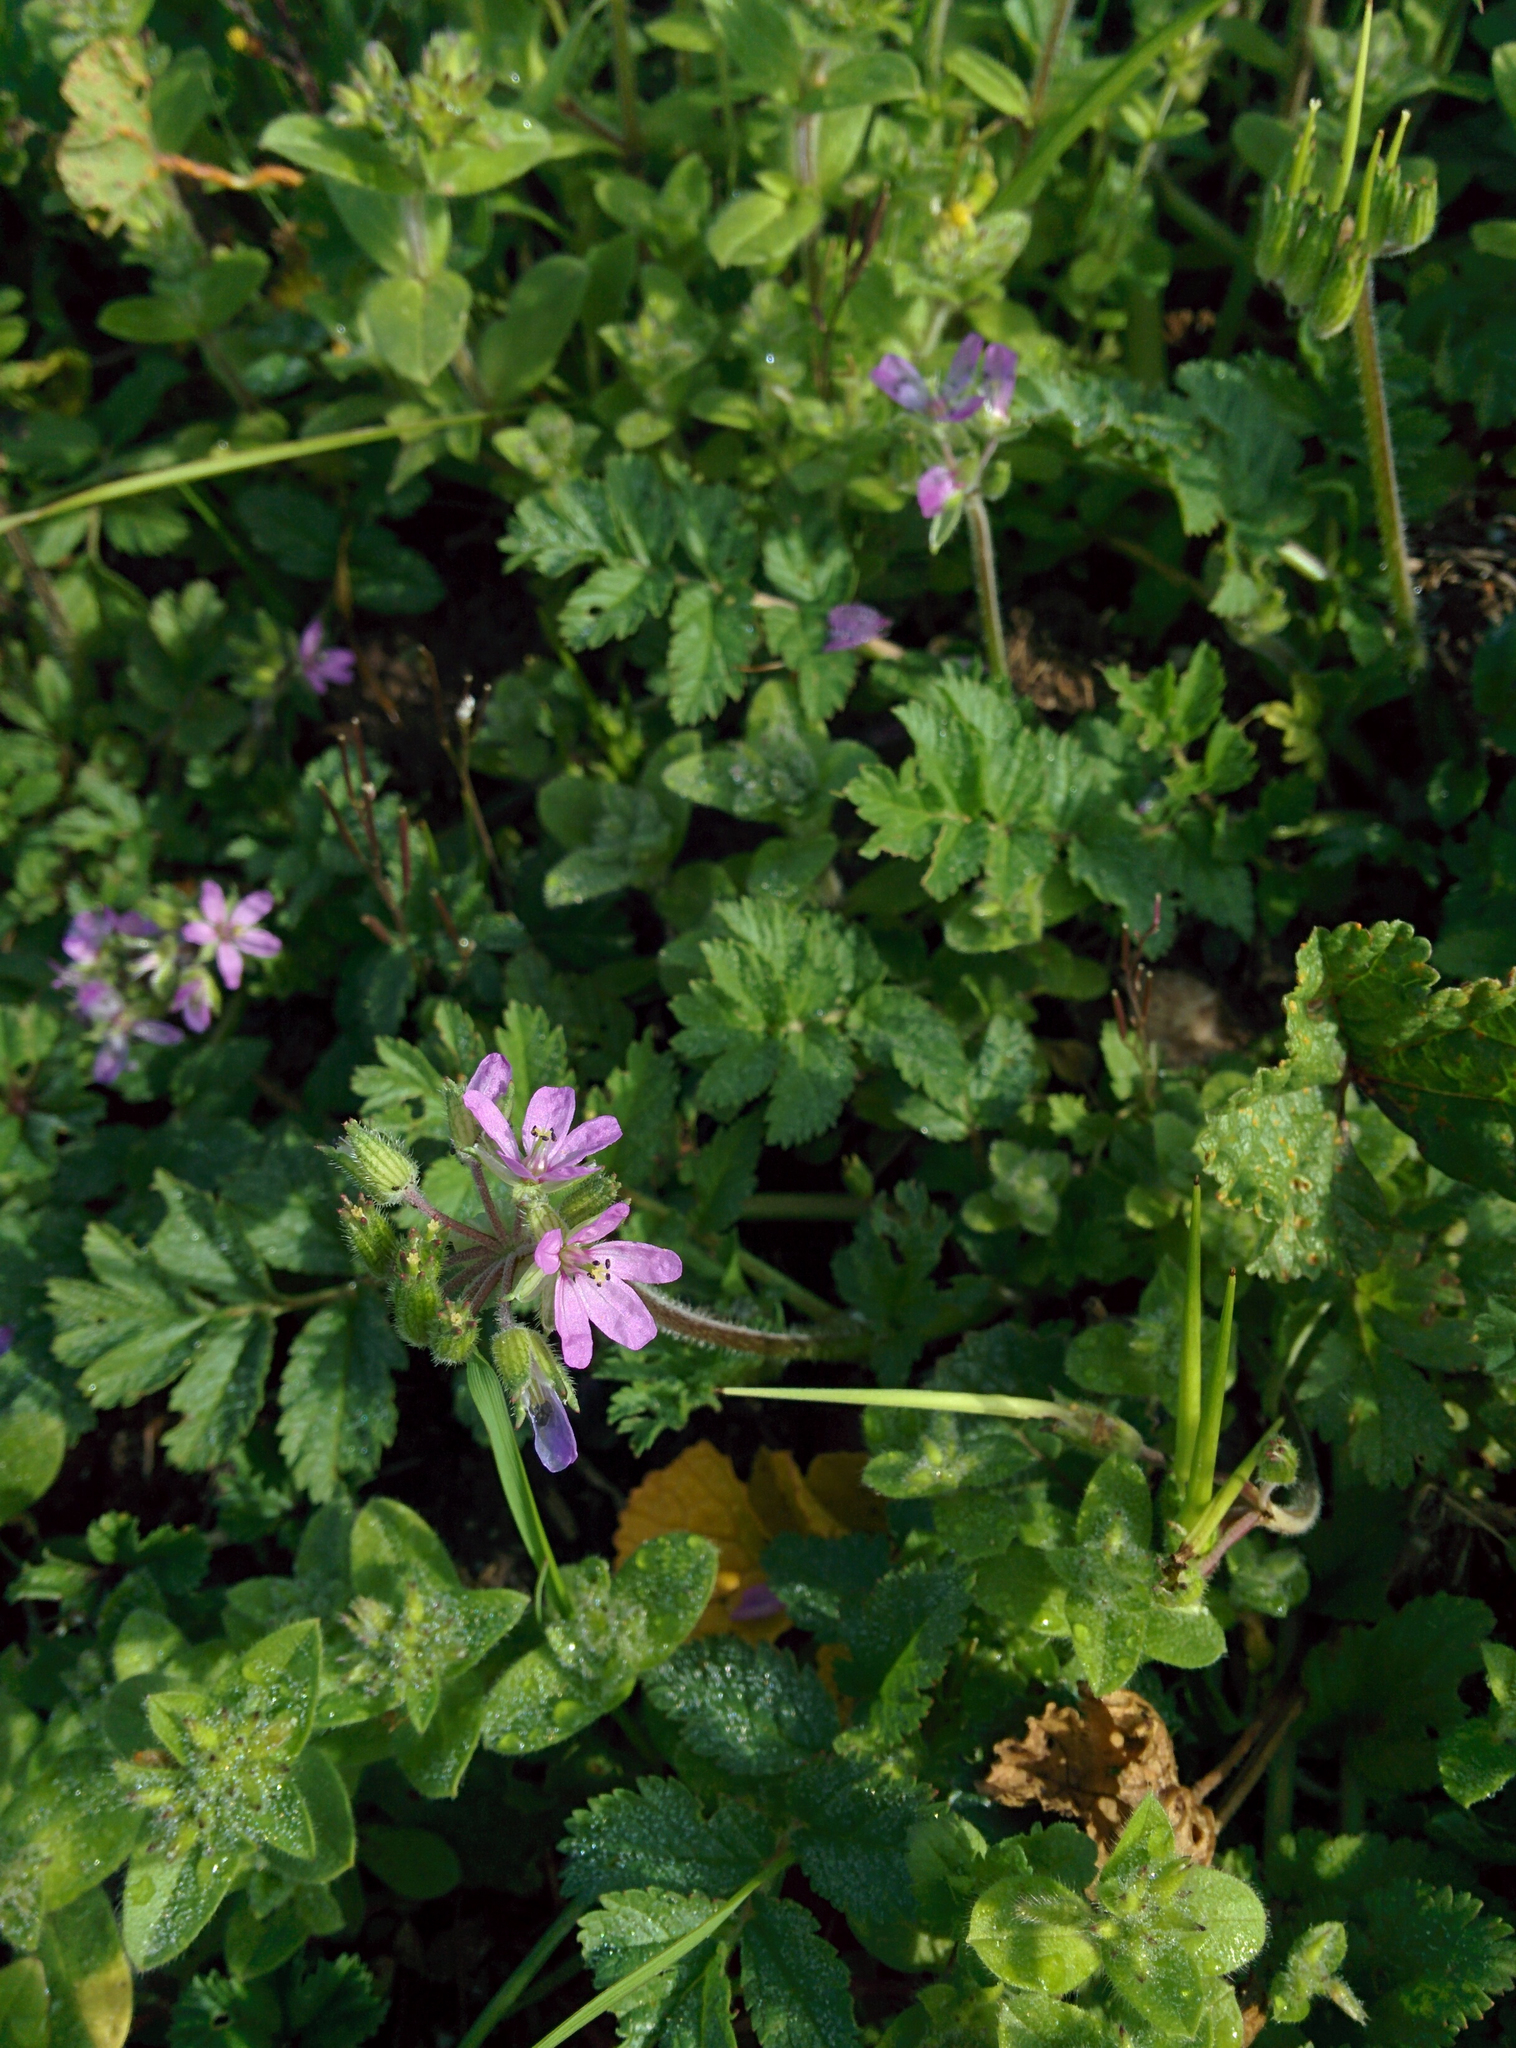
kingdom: Plantae
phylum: Tracheophyta
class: Magnoliopsida
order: Geraniales
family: Geraniaceae
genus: Erodium
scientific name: Erodium cicutarium
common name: Common stork's-bill
